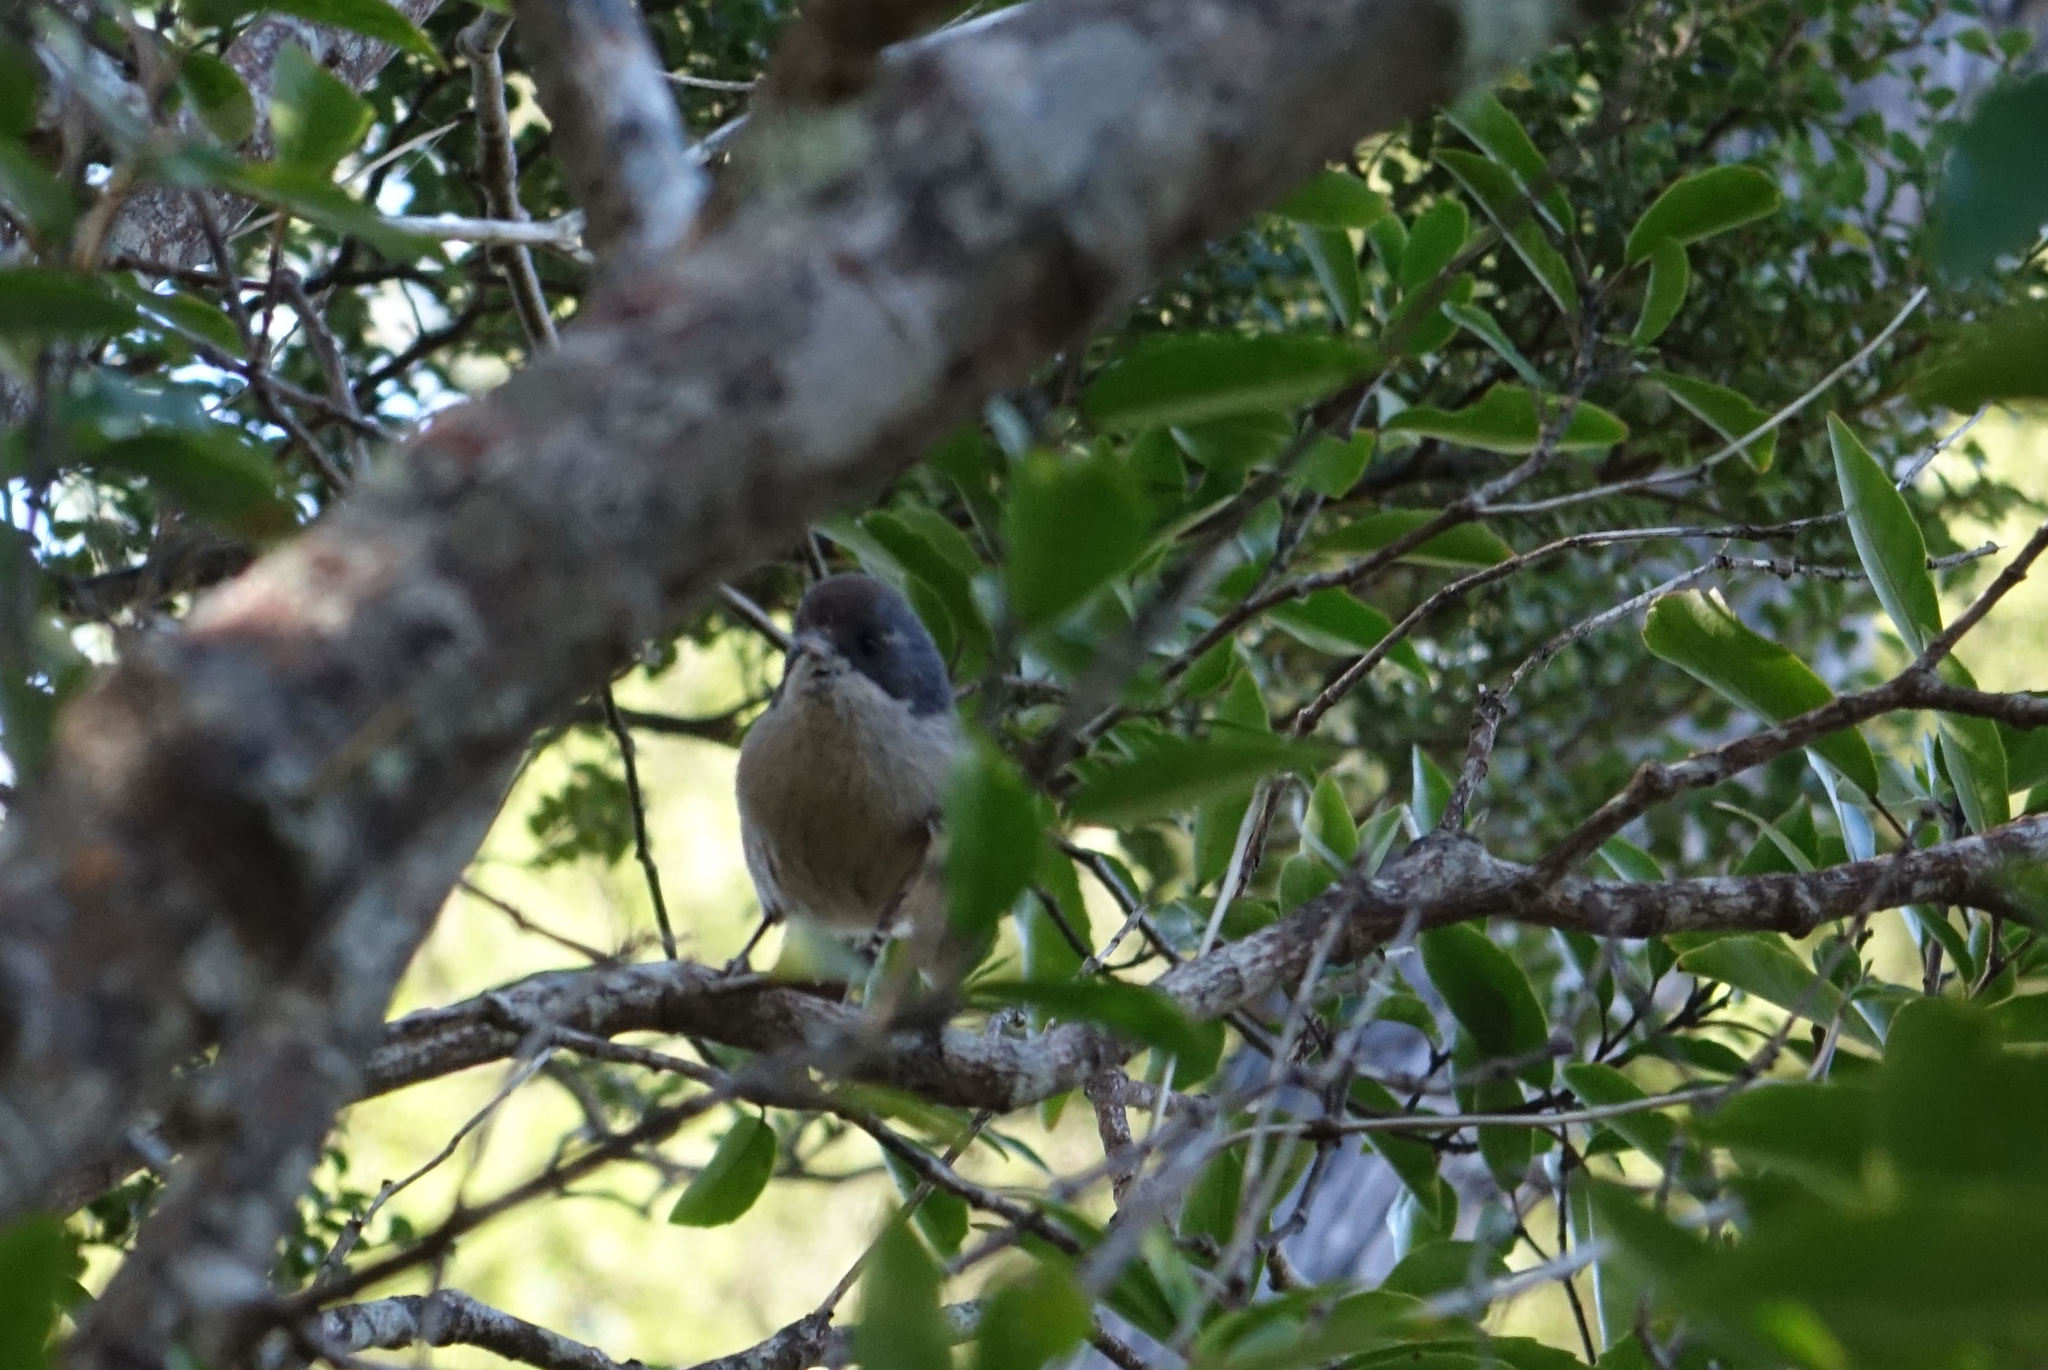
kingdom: Animalia
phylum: Chordata
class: Aves
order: Passeriformes
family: Acanthizidae
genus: Finschia
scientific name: Finschia novaeseelandiae
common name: Pipipi
